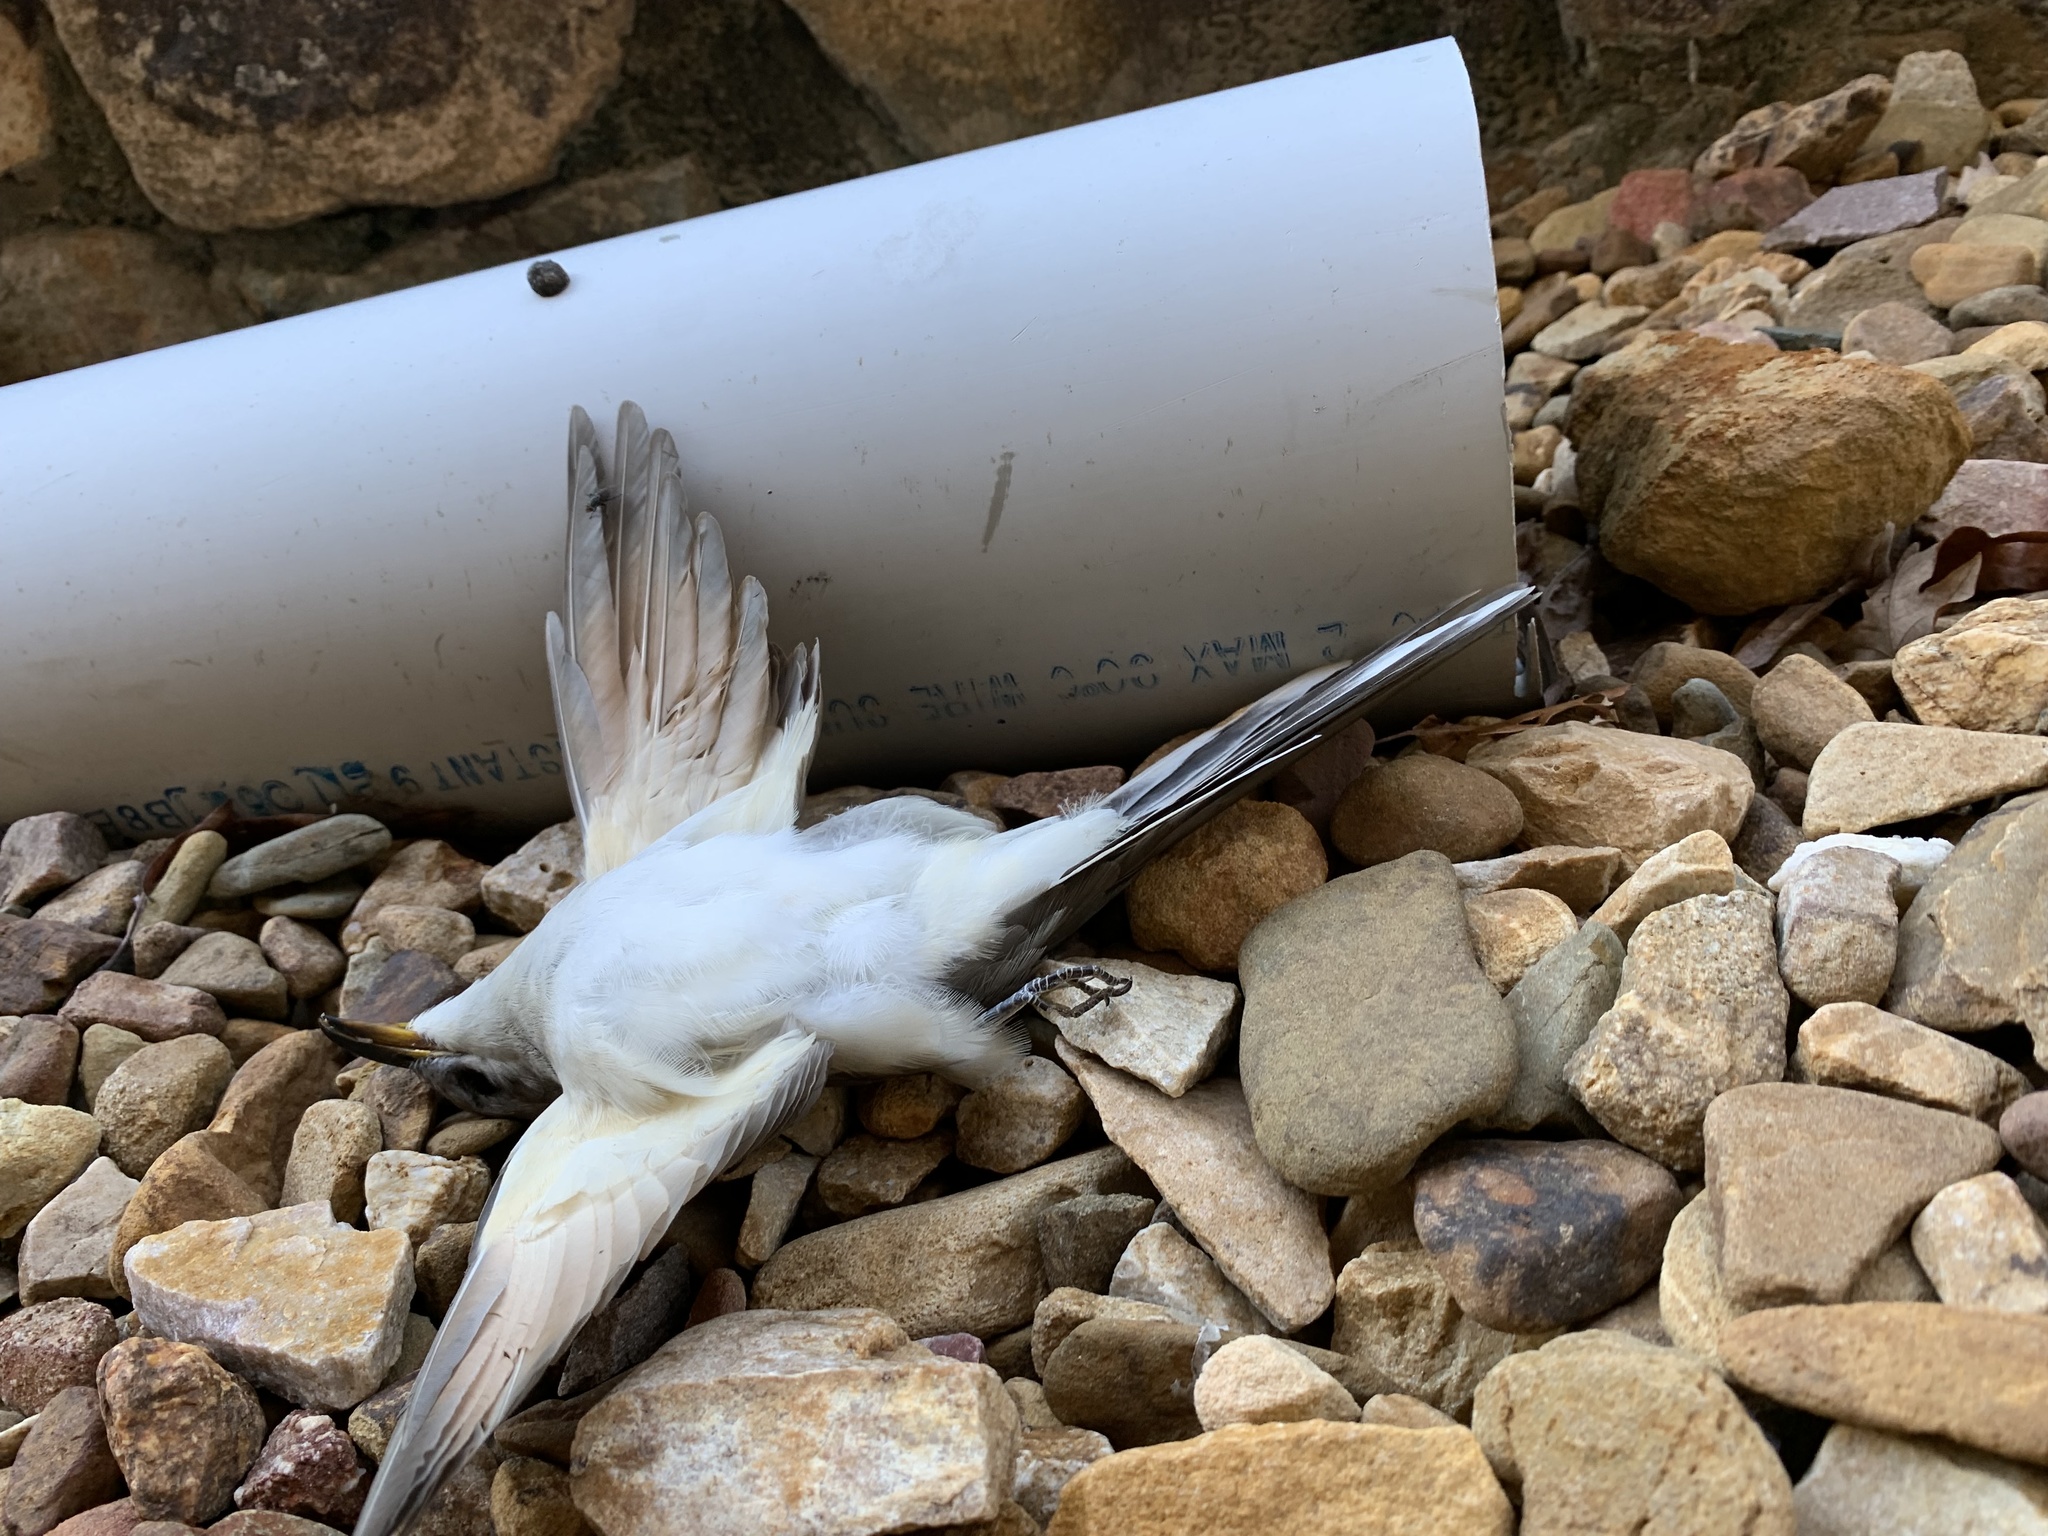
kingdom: Animalia
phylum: Chordata
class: Aves
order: Cuculiformes
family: Cuculidae
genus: Coccyzus
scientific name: Coccyzus americanus
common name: Yellow-billed cuckoo
